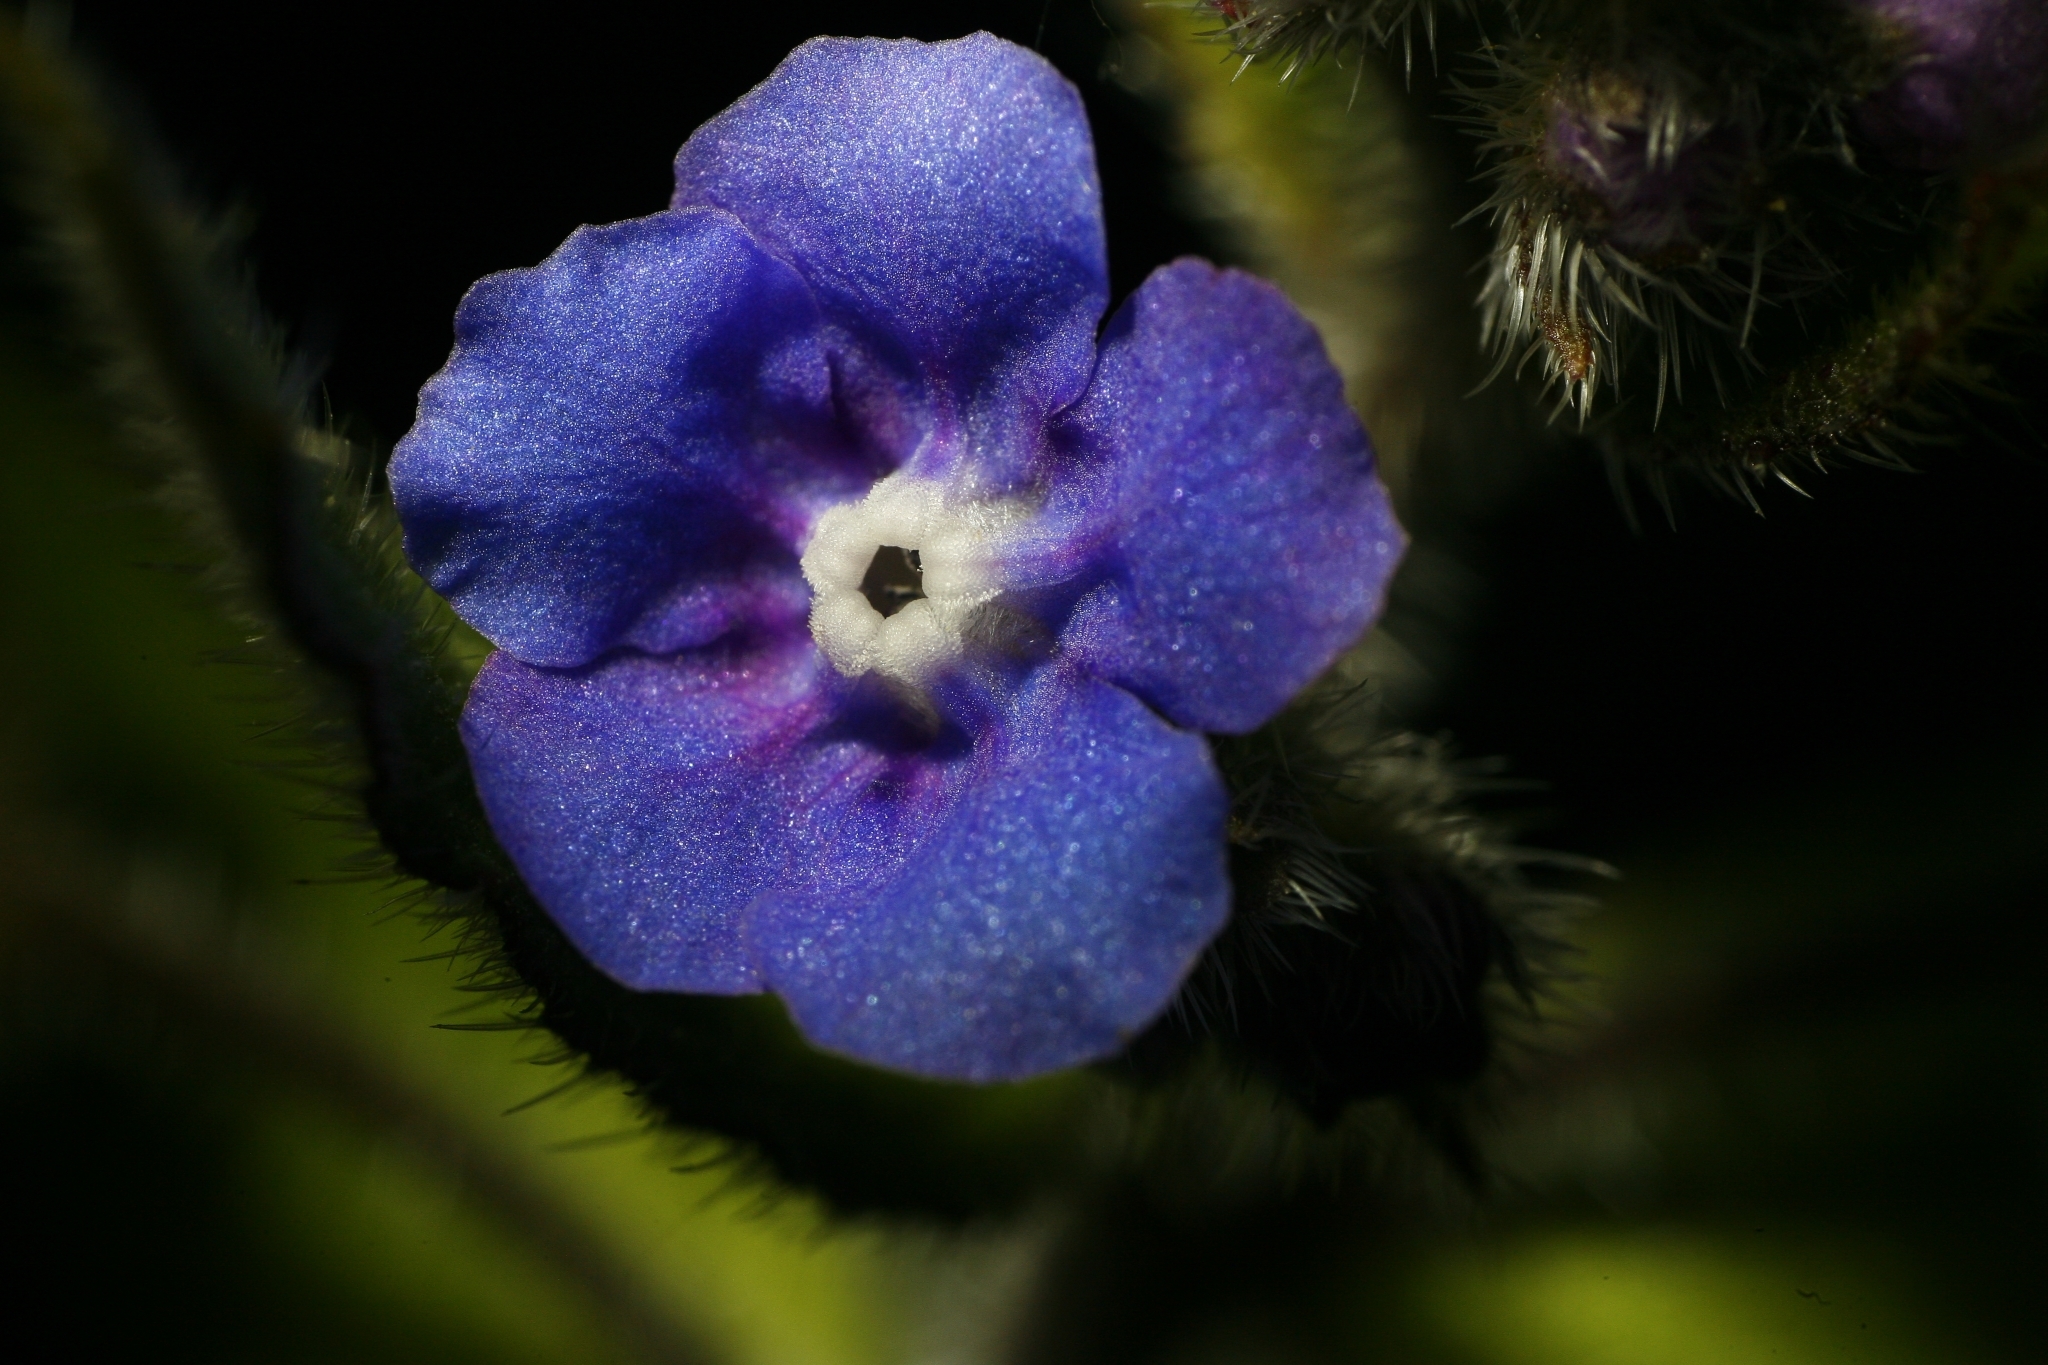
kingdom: Plantae
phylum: Tracheophyta
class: Magnoliopsida
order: Boraginales
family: Boraginaceae
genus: Pentaglottis
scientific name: Pentaglottis sempervirens
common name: Green alkanet
